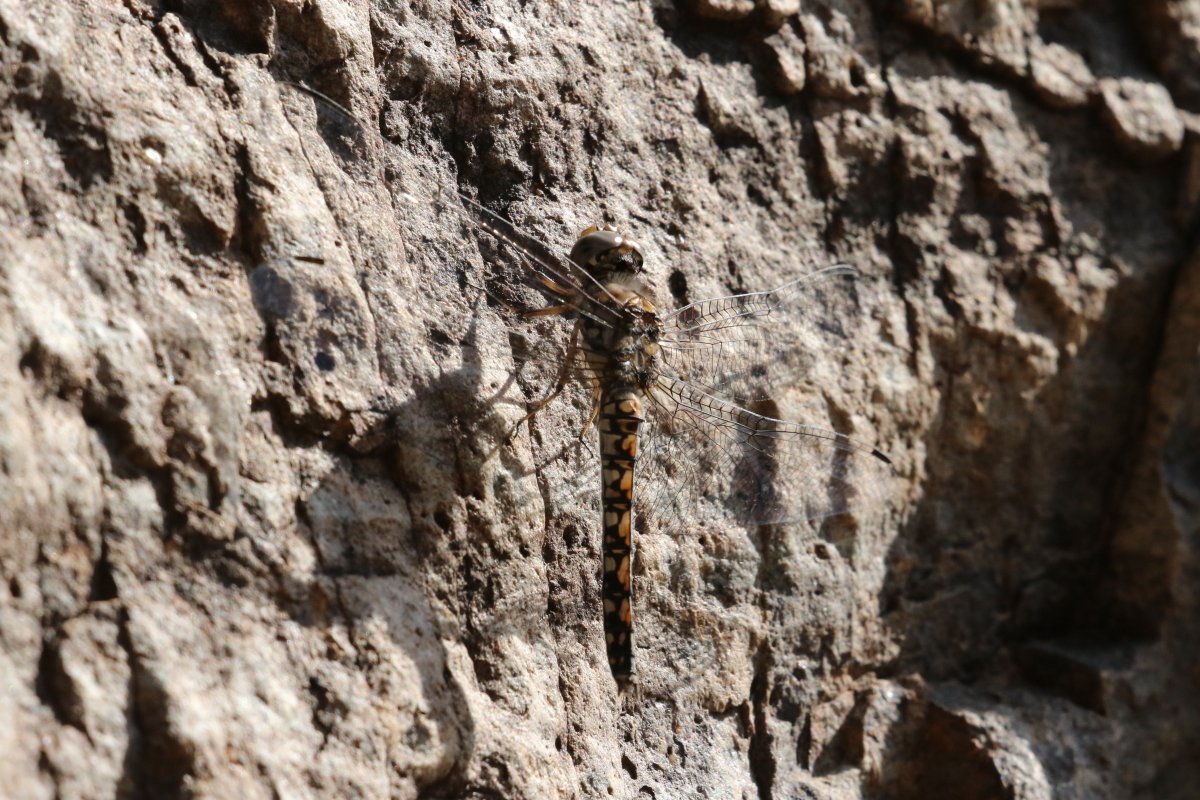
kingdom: Animalia
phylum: Arthropoda
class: Insecta
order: Odonata
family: Libellulidae
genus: Paltothemis
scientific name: Paltothemis lineatipes
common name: Red rock skimmer
